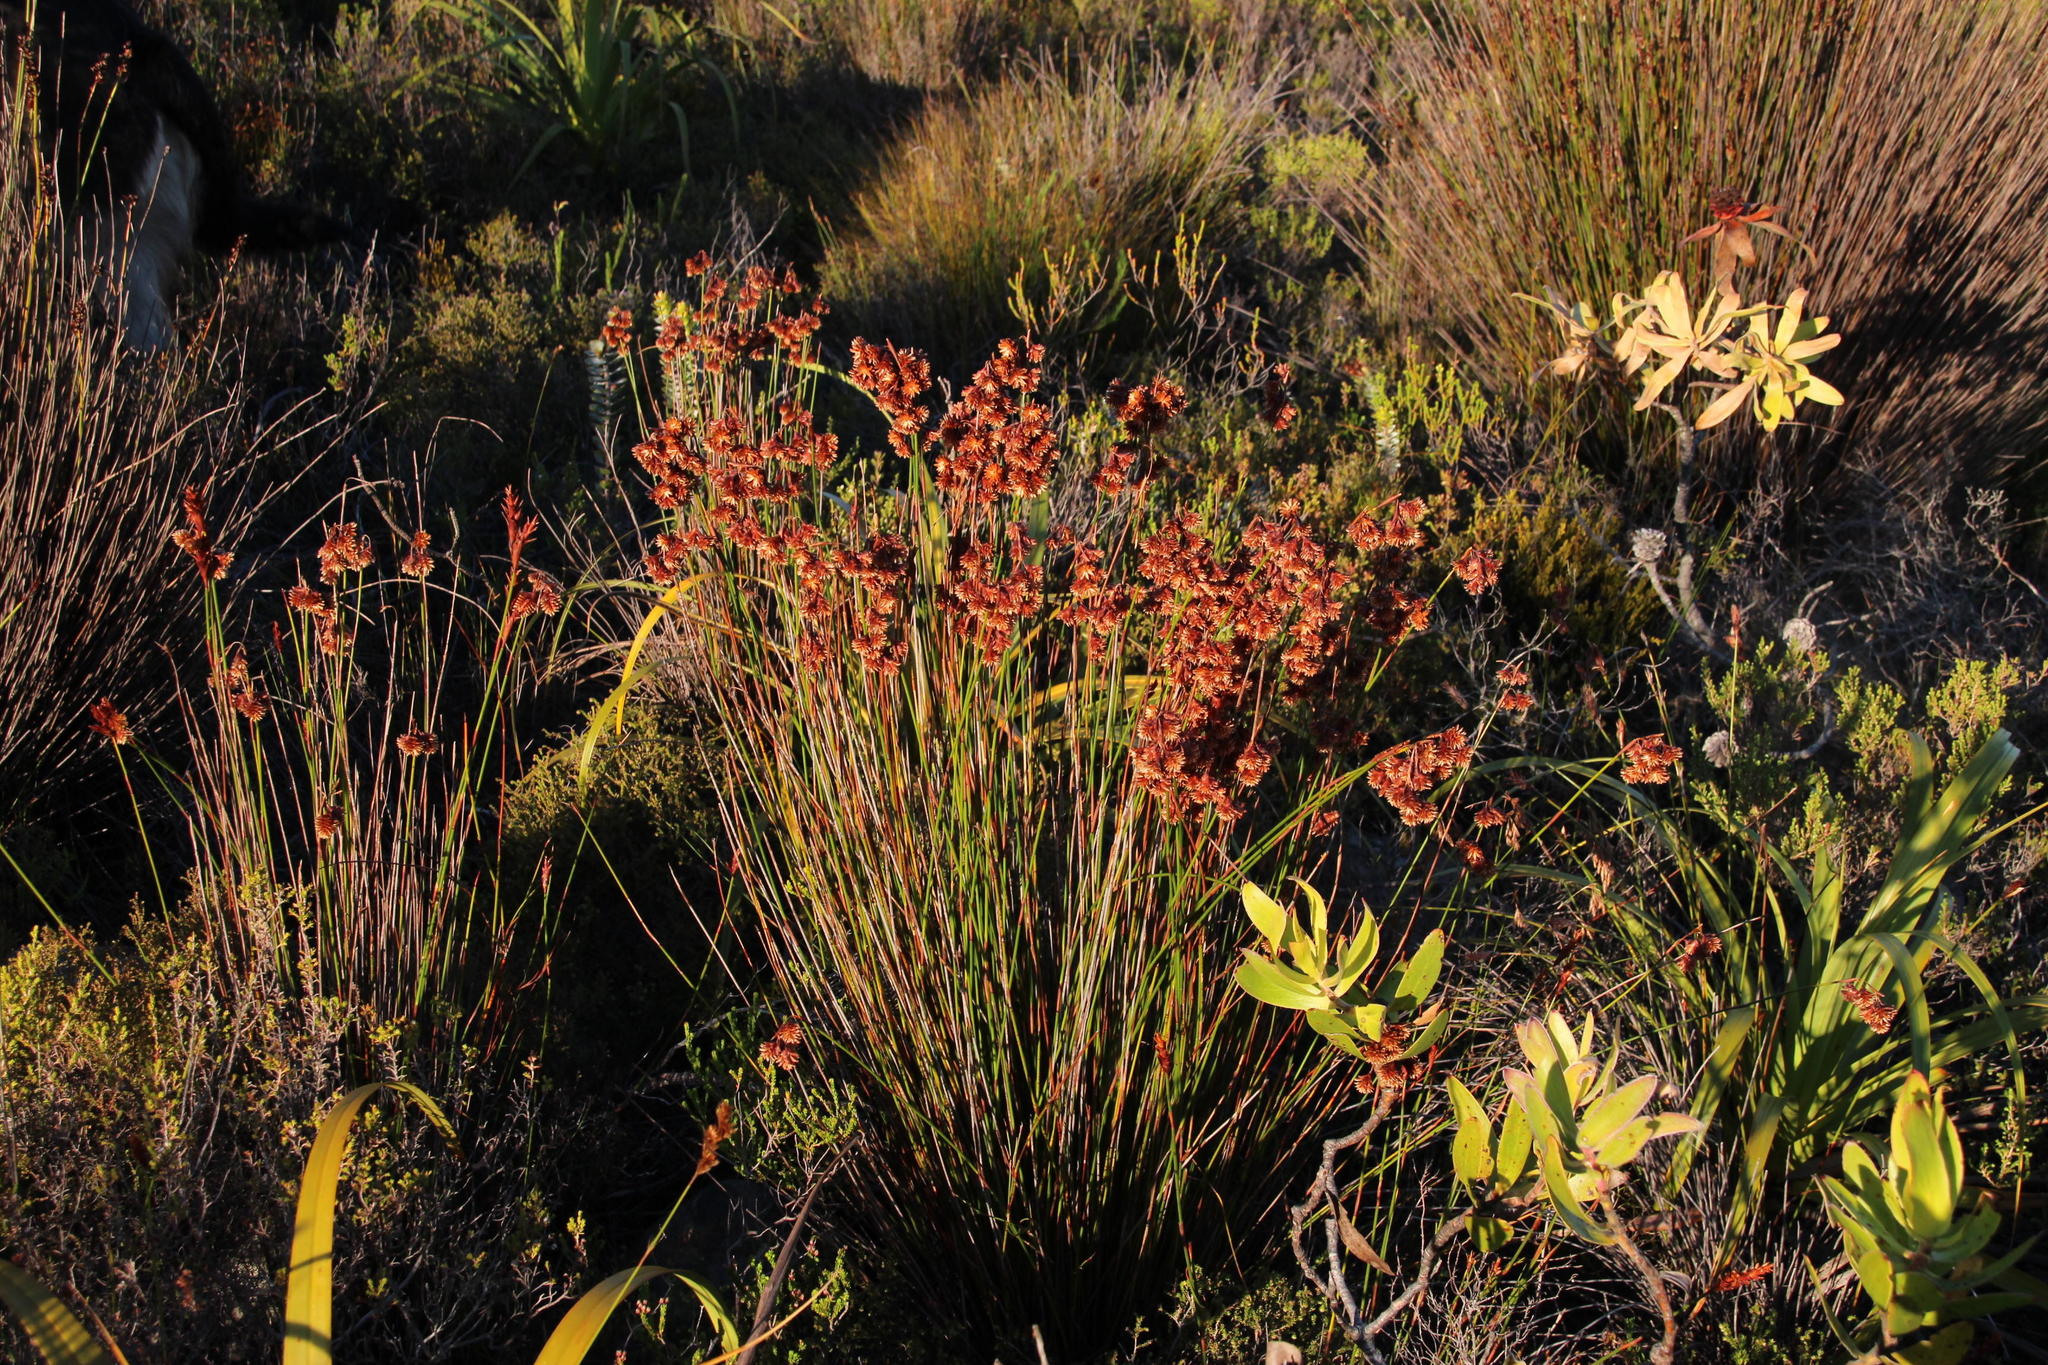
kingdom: Plantae
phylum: Tracheophyta
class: Liliopsida
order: Poales
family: Restionaceae
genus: Staberoha
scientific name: Staberoha banksii
